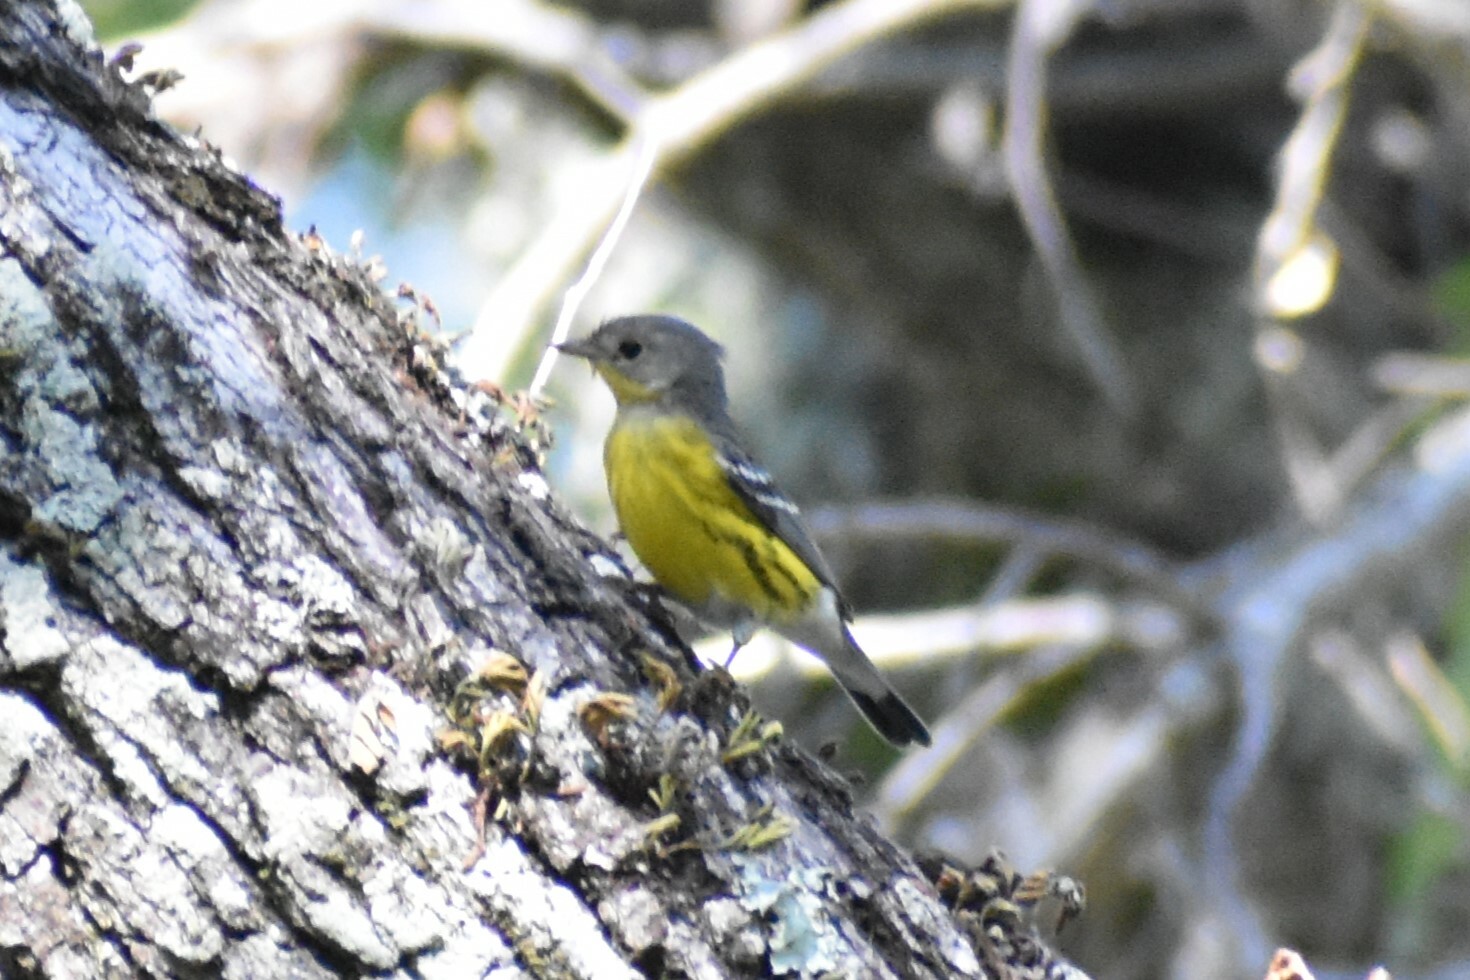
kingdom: Animalia
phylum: Chordata
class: Aves
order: Passeriformes
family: Parulidae
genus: Setophaga
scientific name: Setophaga magnolia
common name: Magnolia warbler
